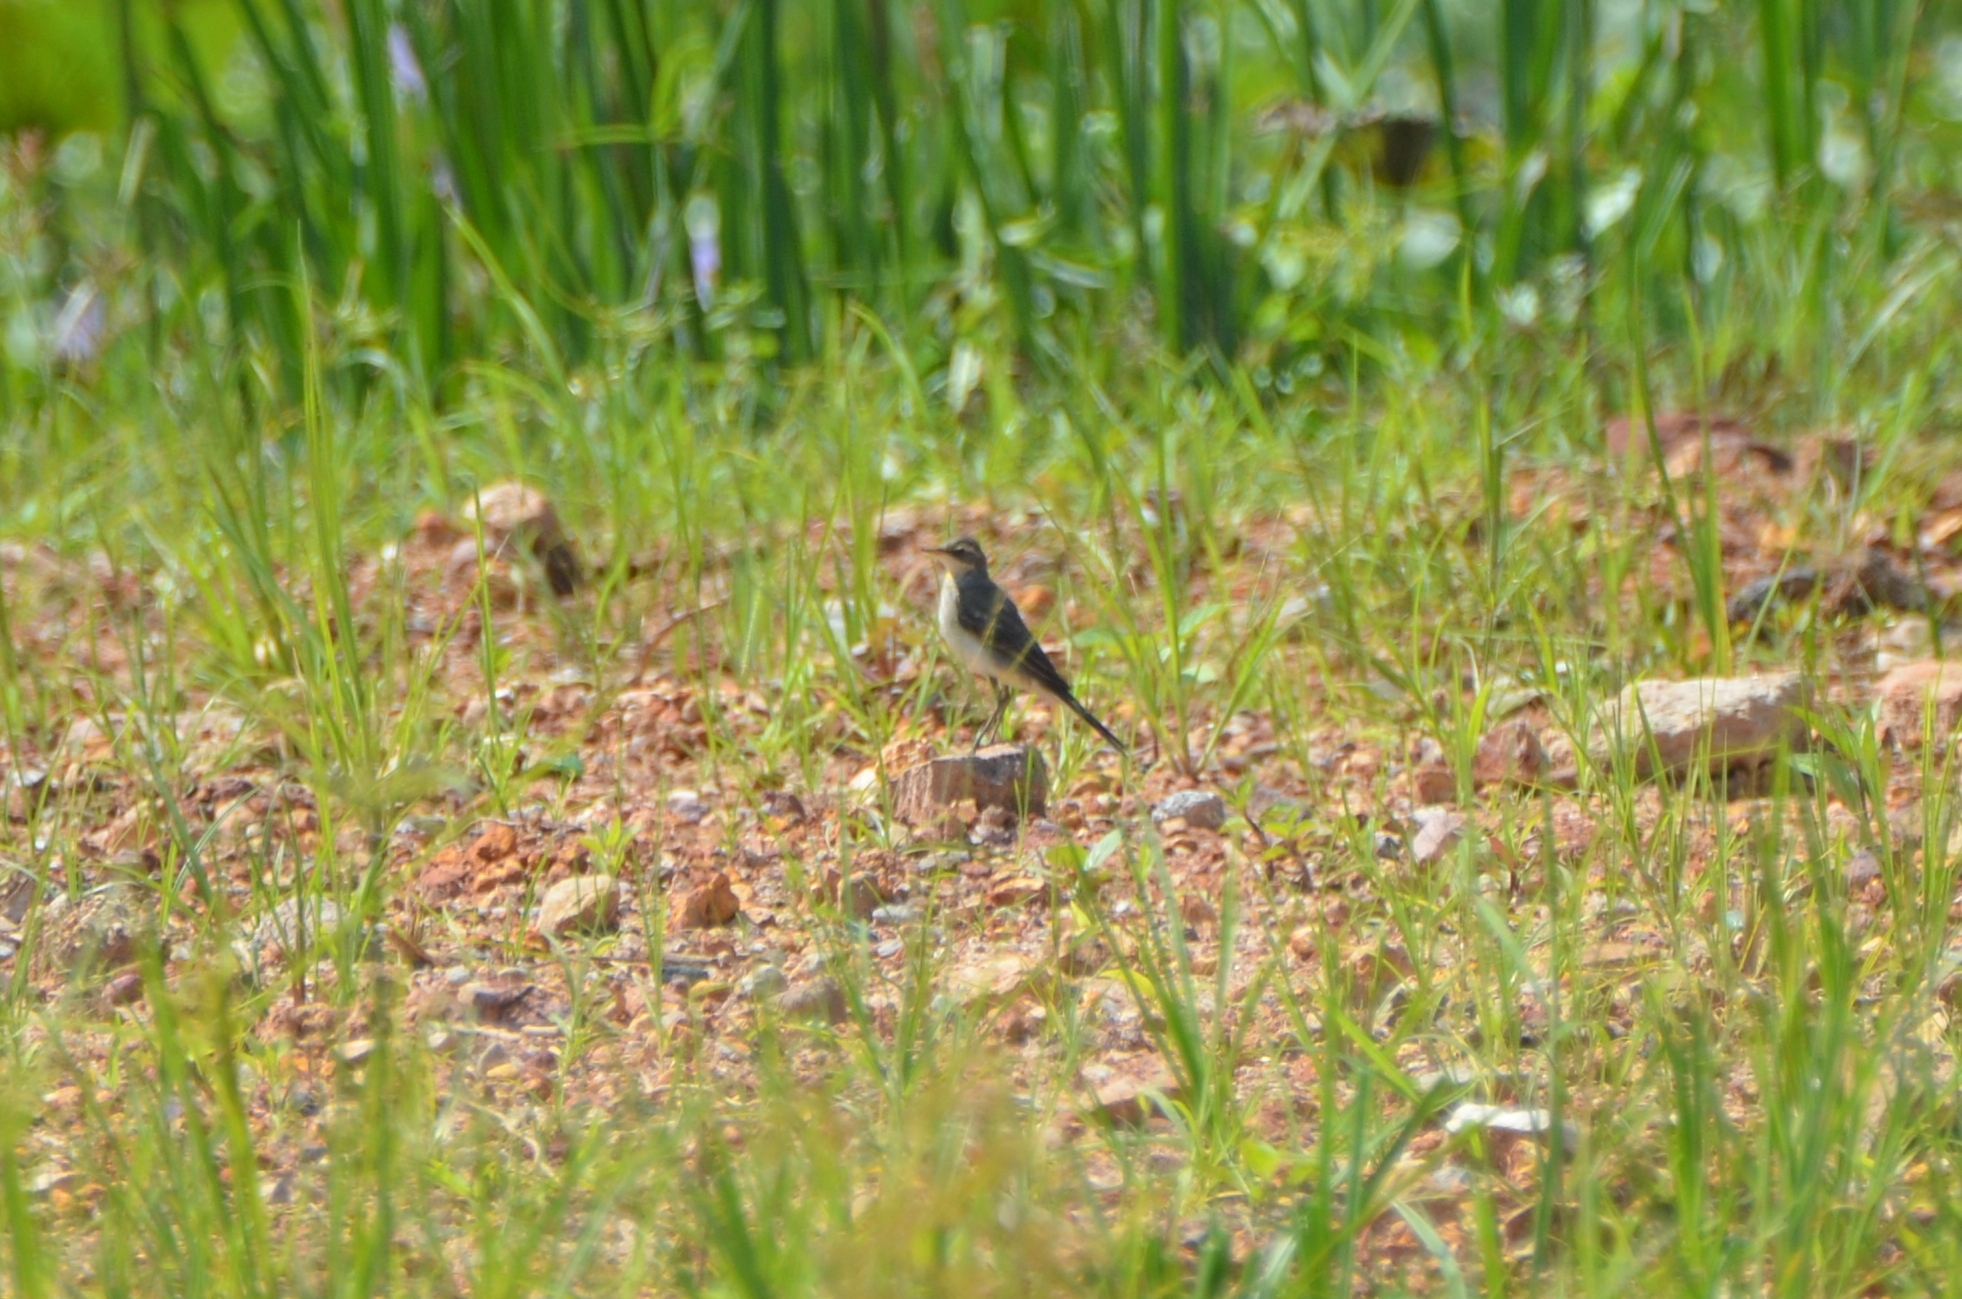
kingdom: Animalia
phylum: Chordata
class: Aves
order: Passeriformes
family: Motacillidae
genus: Motacilla
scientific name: Motacilla tschutschensis
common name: Eastern yellow wagtail
